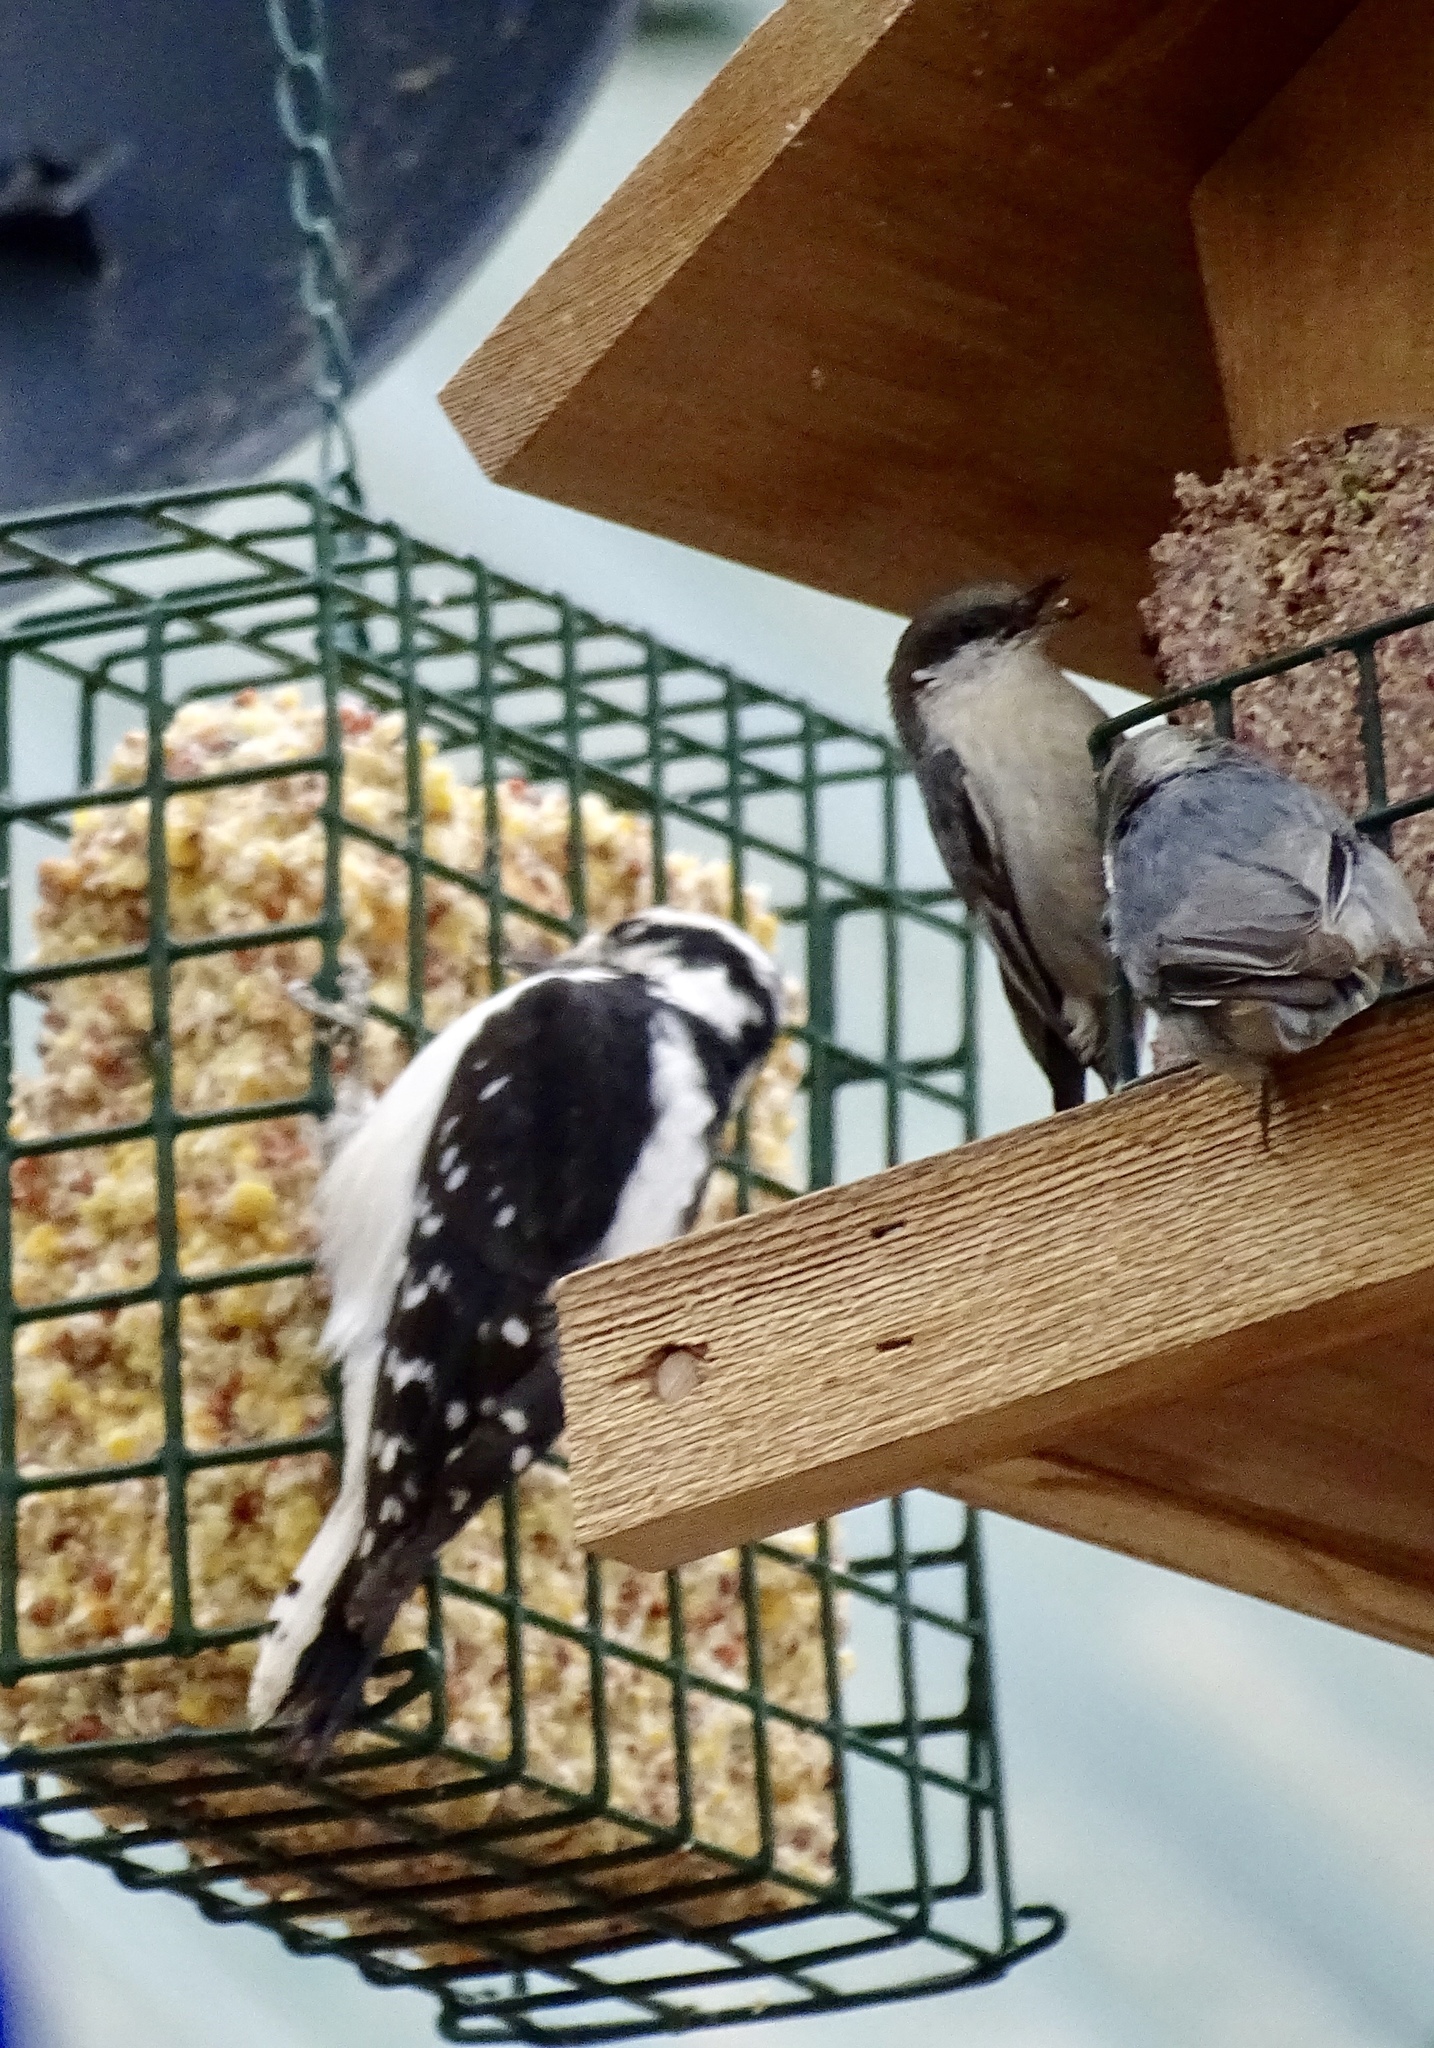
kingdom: Animalia
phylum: Chordata
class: Aves
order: Piciformes
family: Picidae
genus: Dryobates
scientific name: Dryobates pubescens
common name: Downy woodpecker
